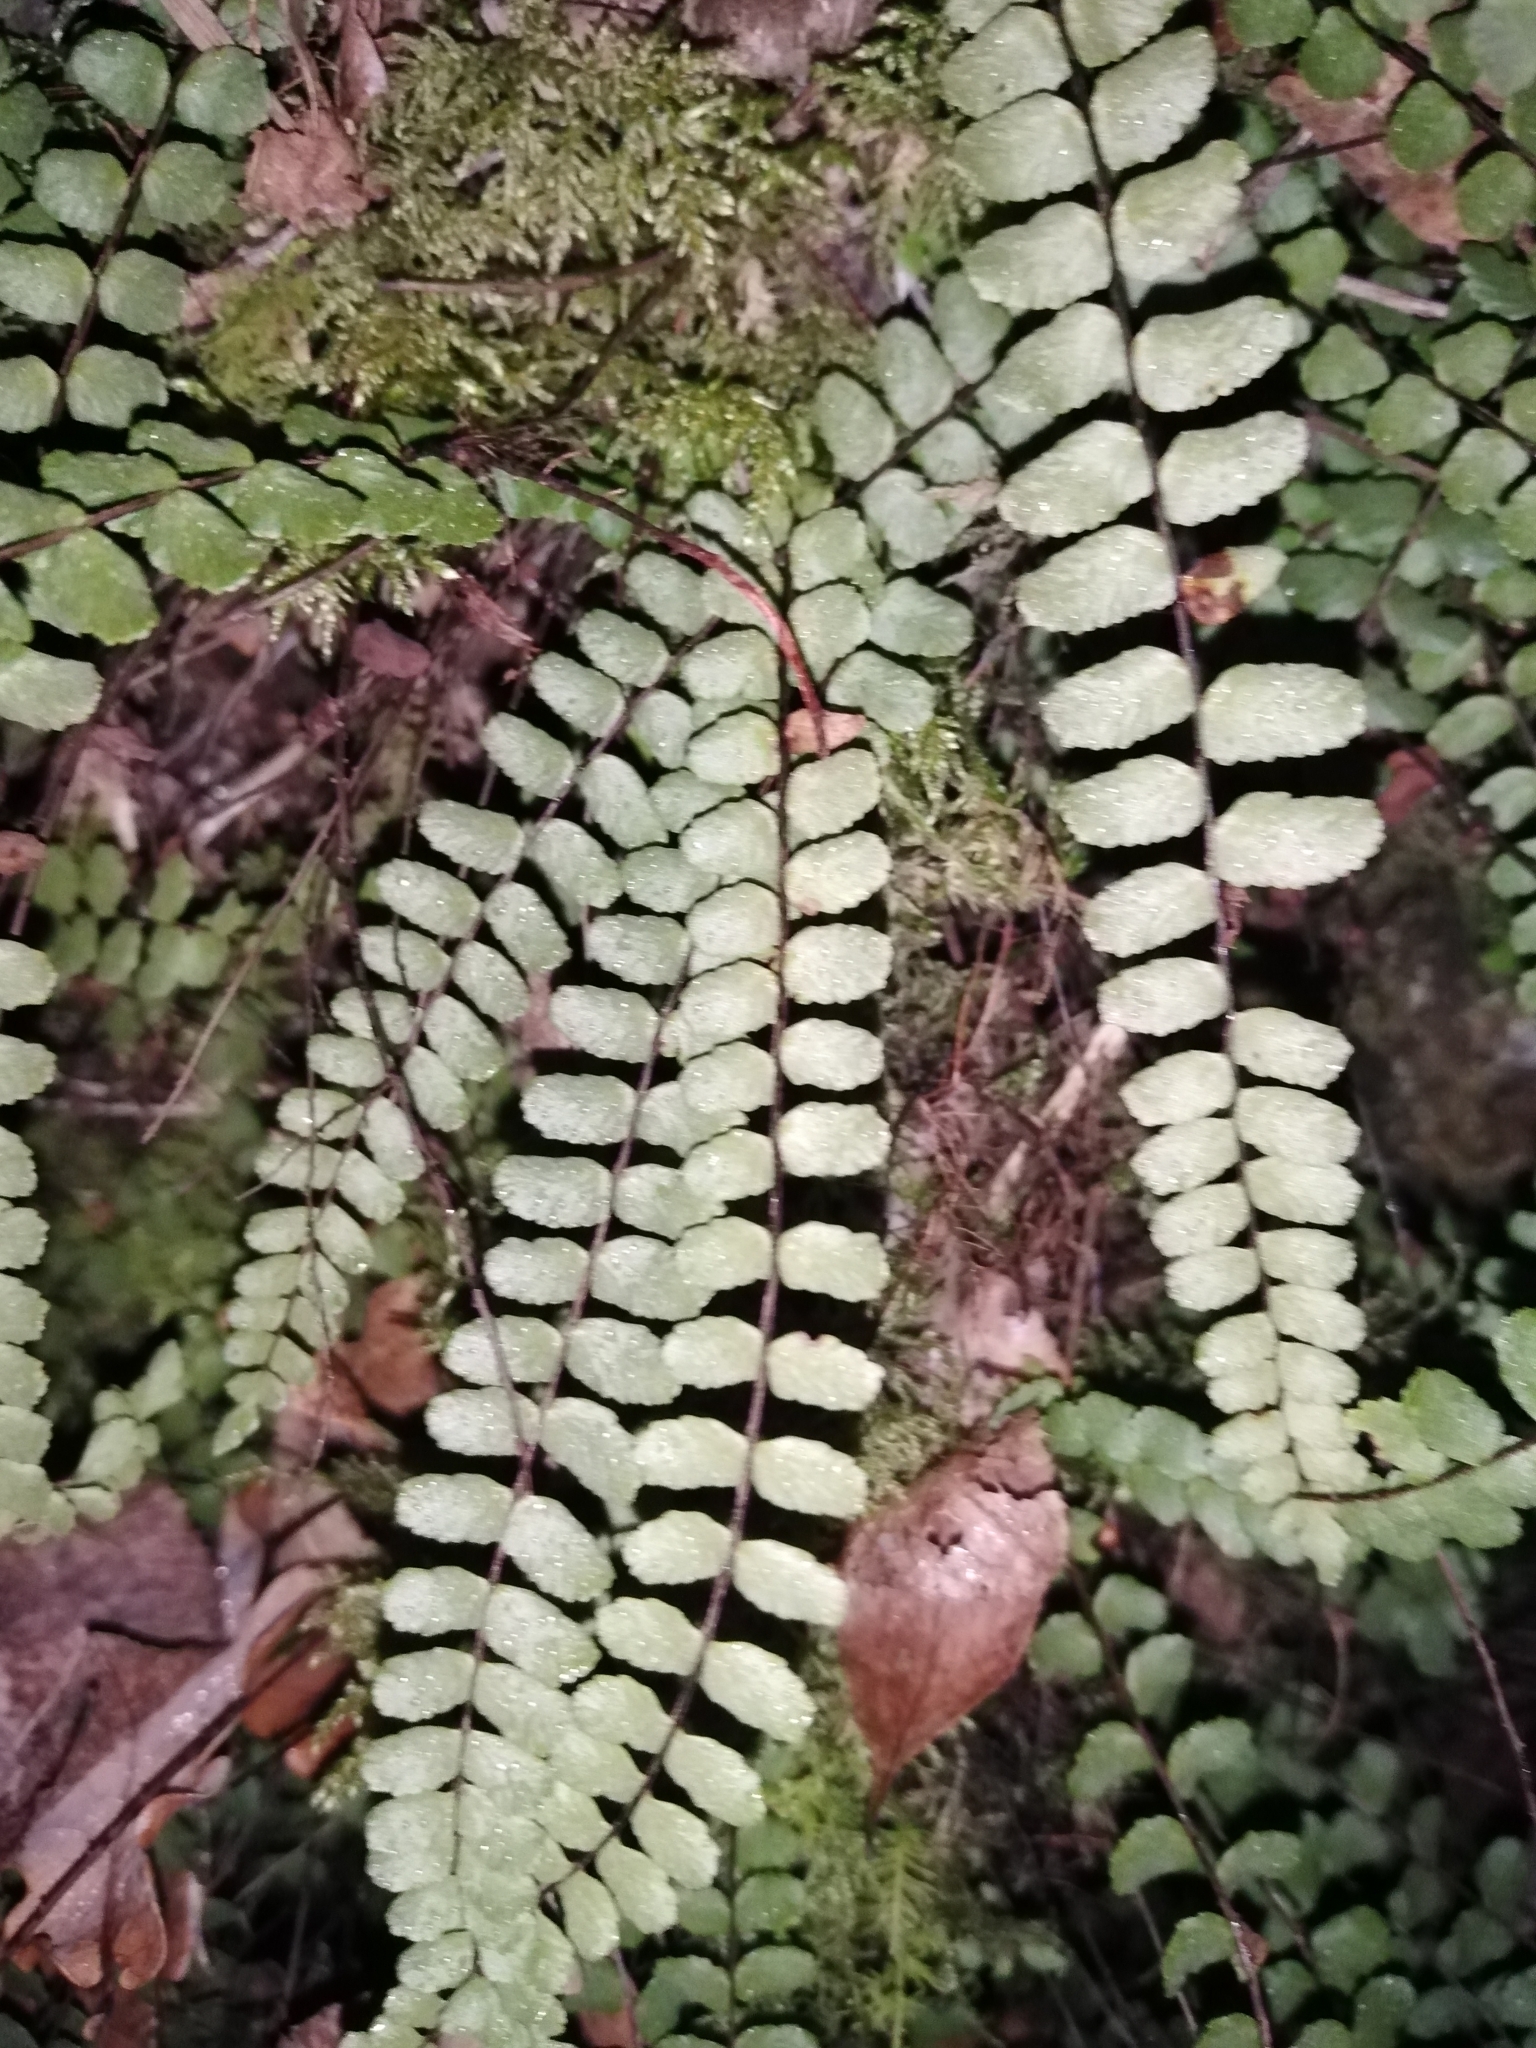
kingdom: Plantae
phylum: Tracheophyta
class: Polypodiopsida
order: Polypodiales
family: Aspleniaceae
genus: Asplenium
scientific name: Asplenium trichomanes
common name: Maidenhair spleenwort
